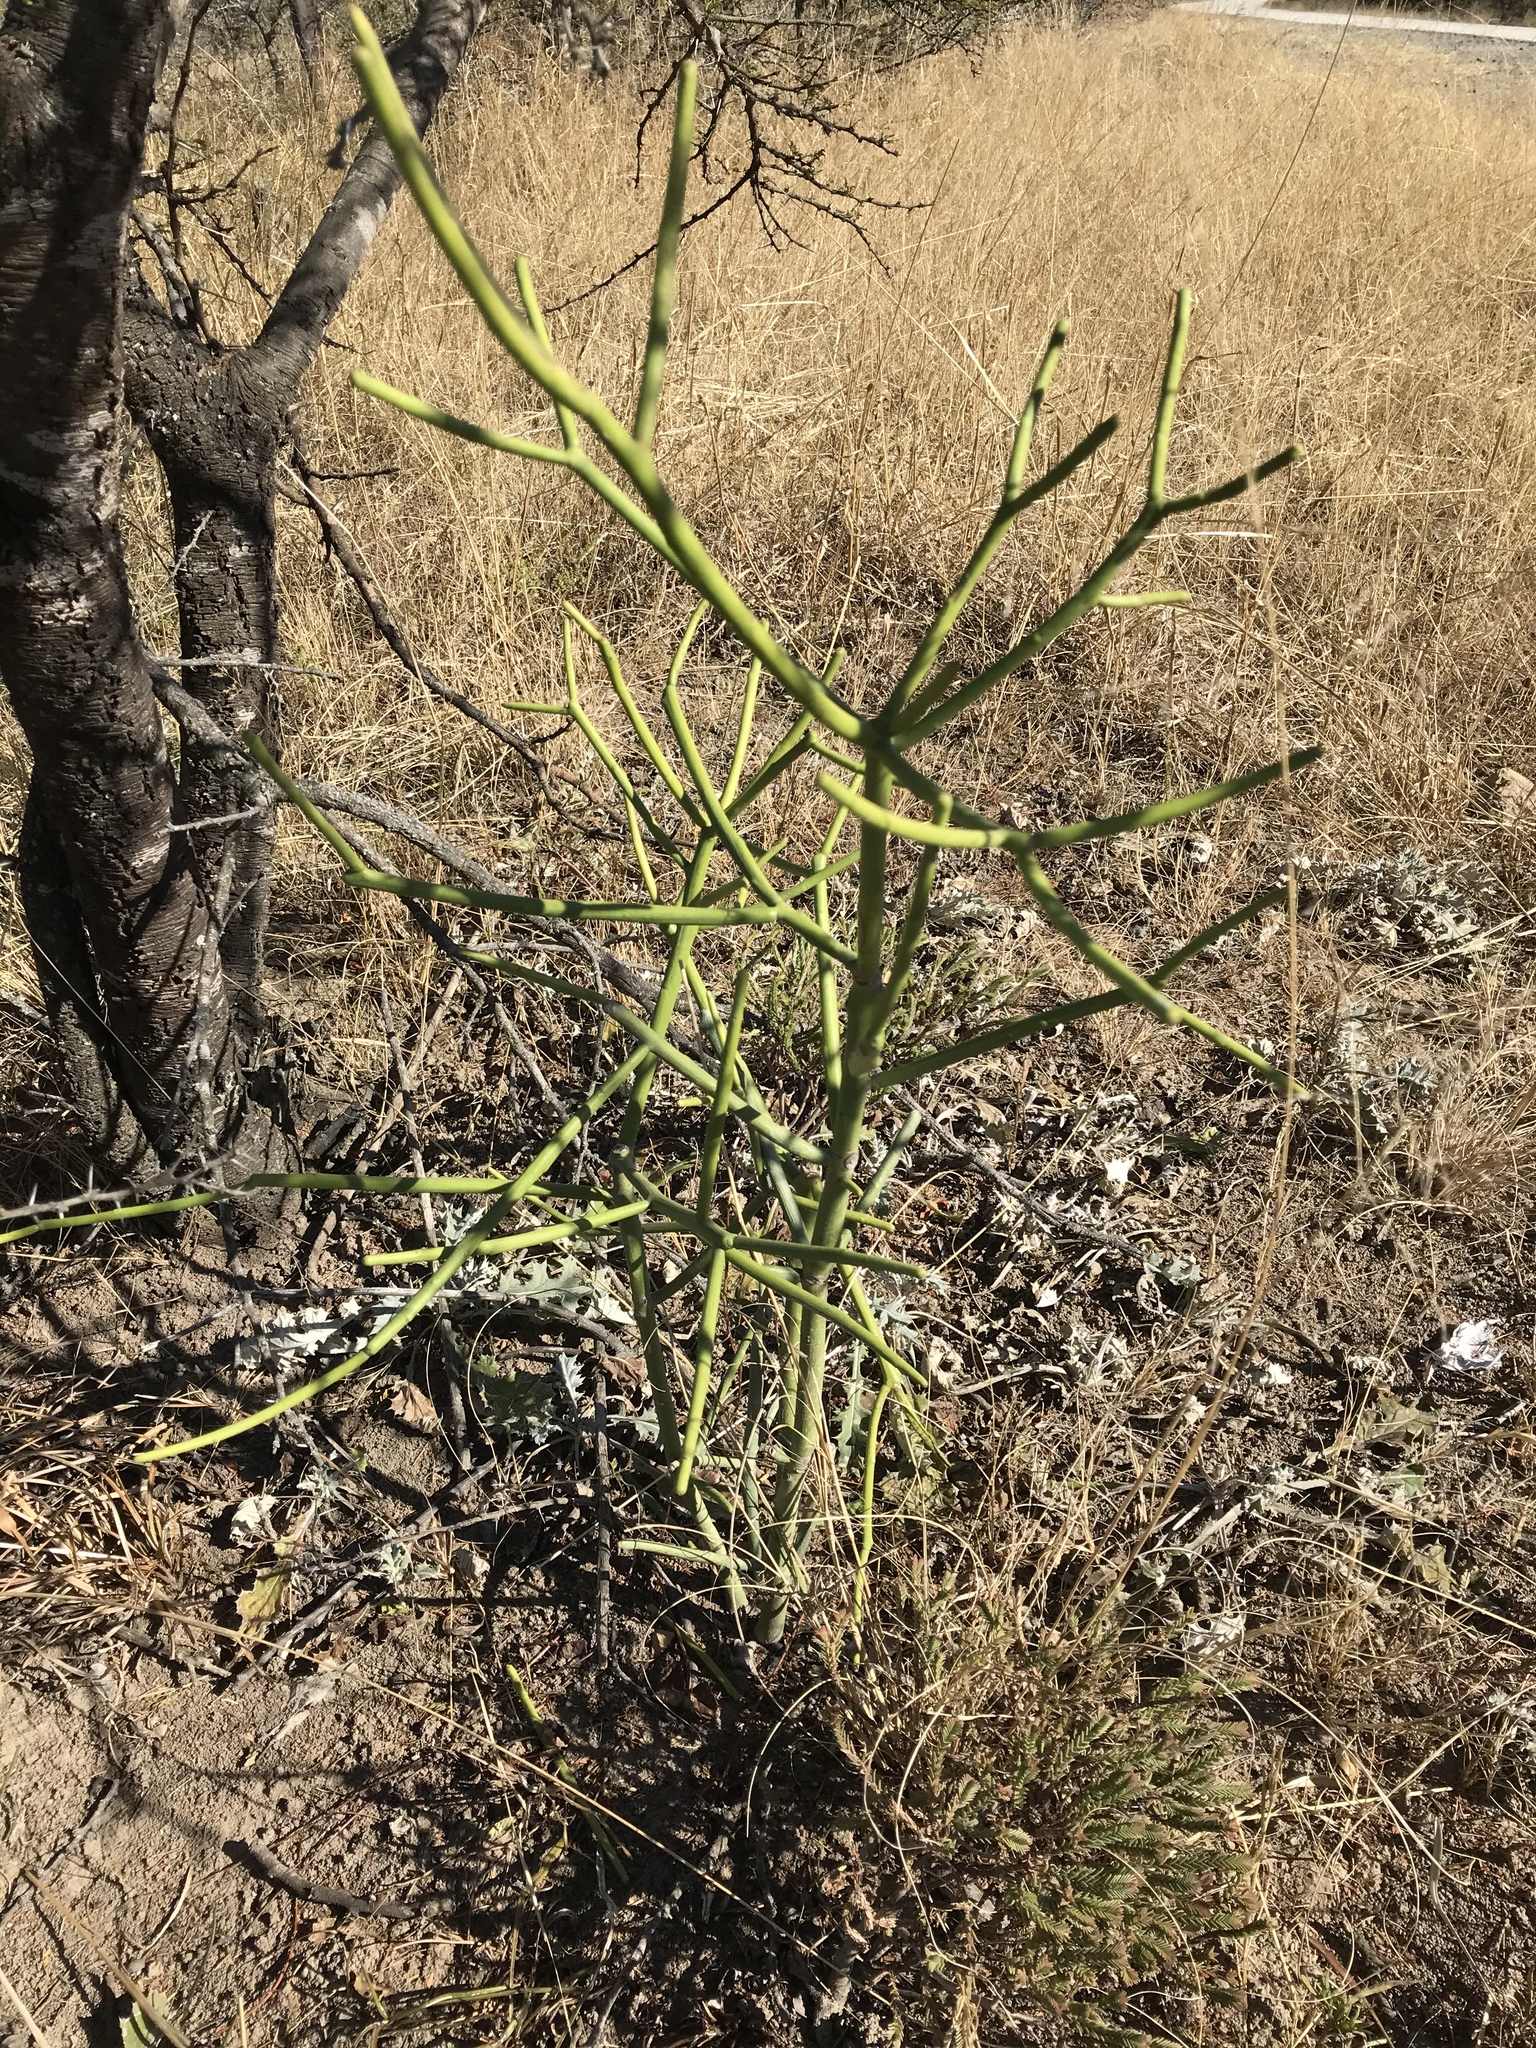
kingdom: Plantae
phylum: Tracheophyta
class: Magnoliopsida
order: Malpighiales
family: Euphorbiaceae
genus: Euphorbia
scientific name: Euphorbia tirucalli
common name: Indiantree spurge
